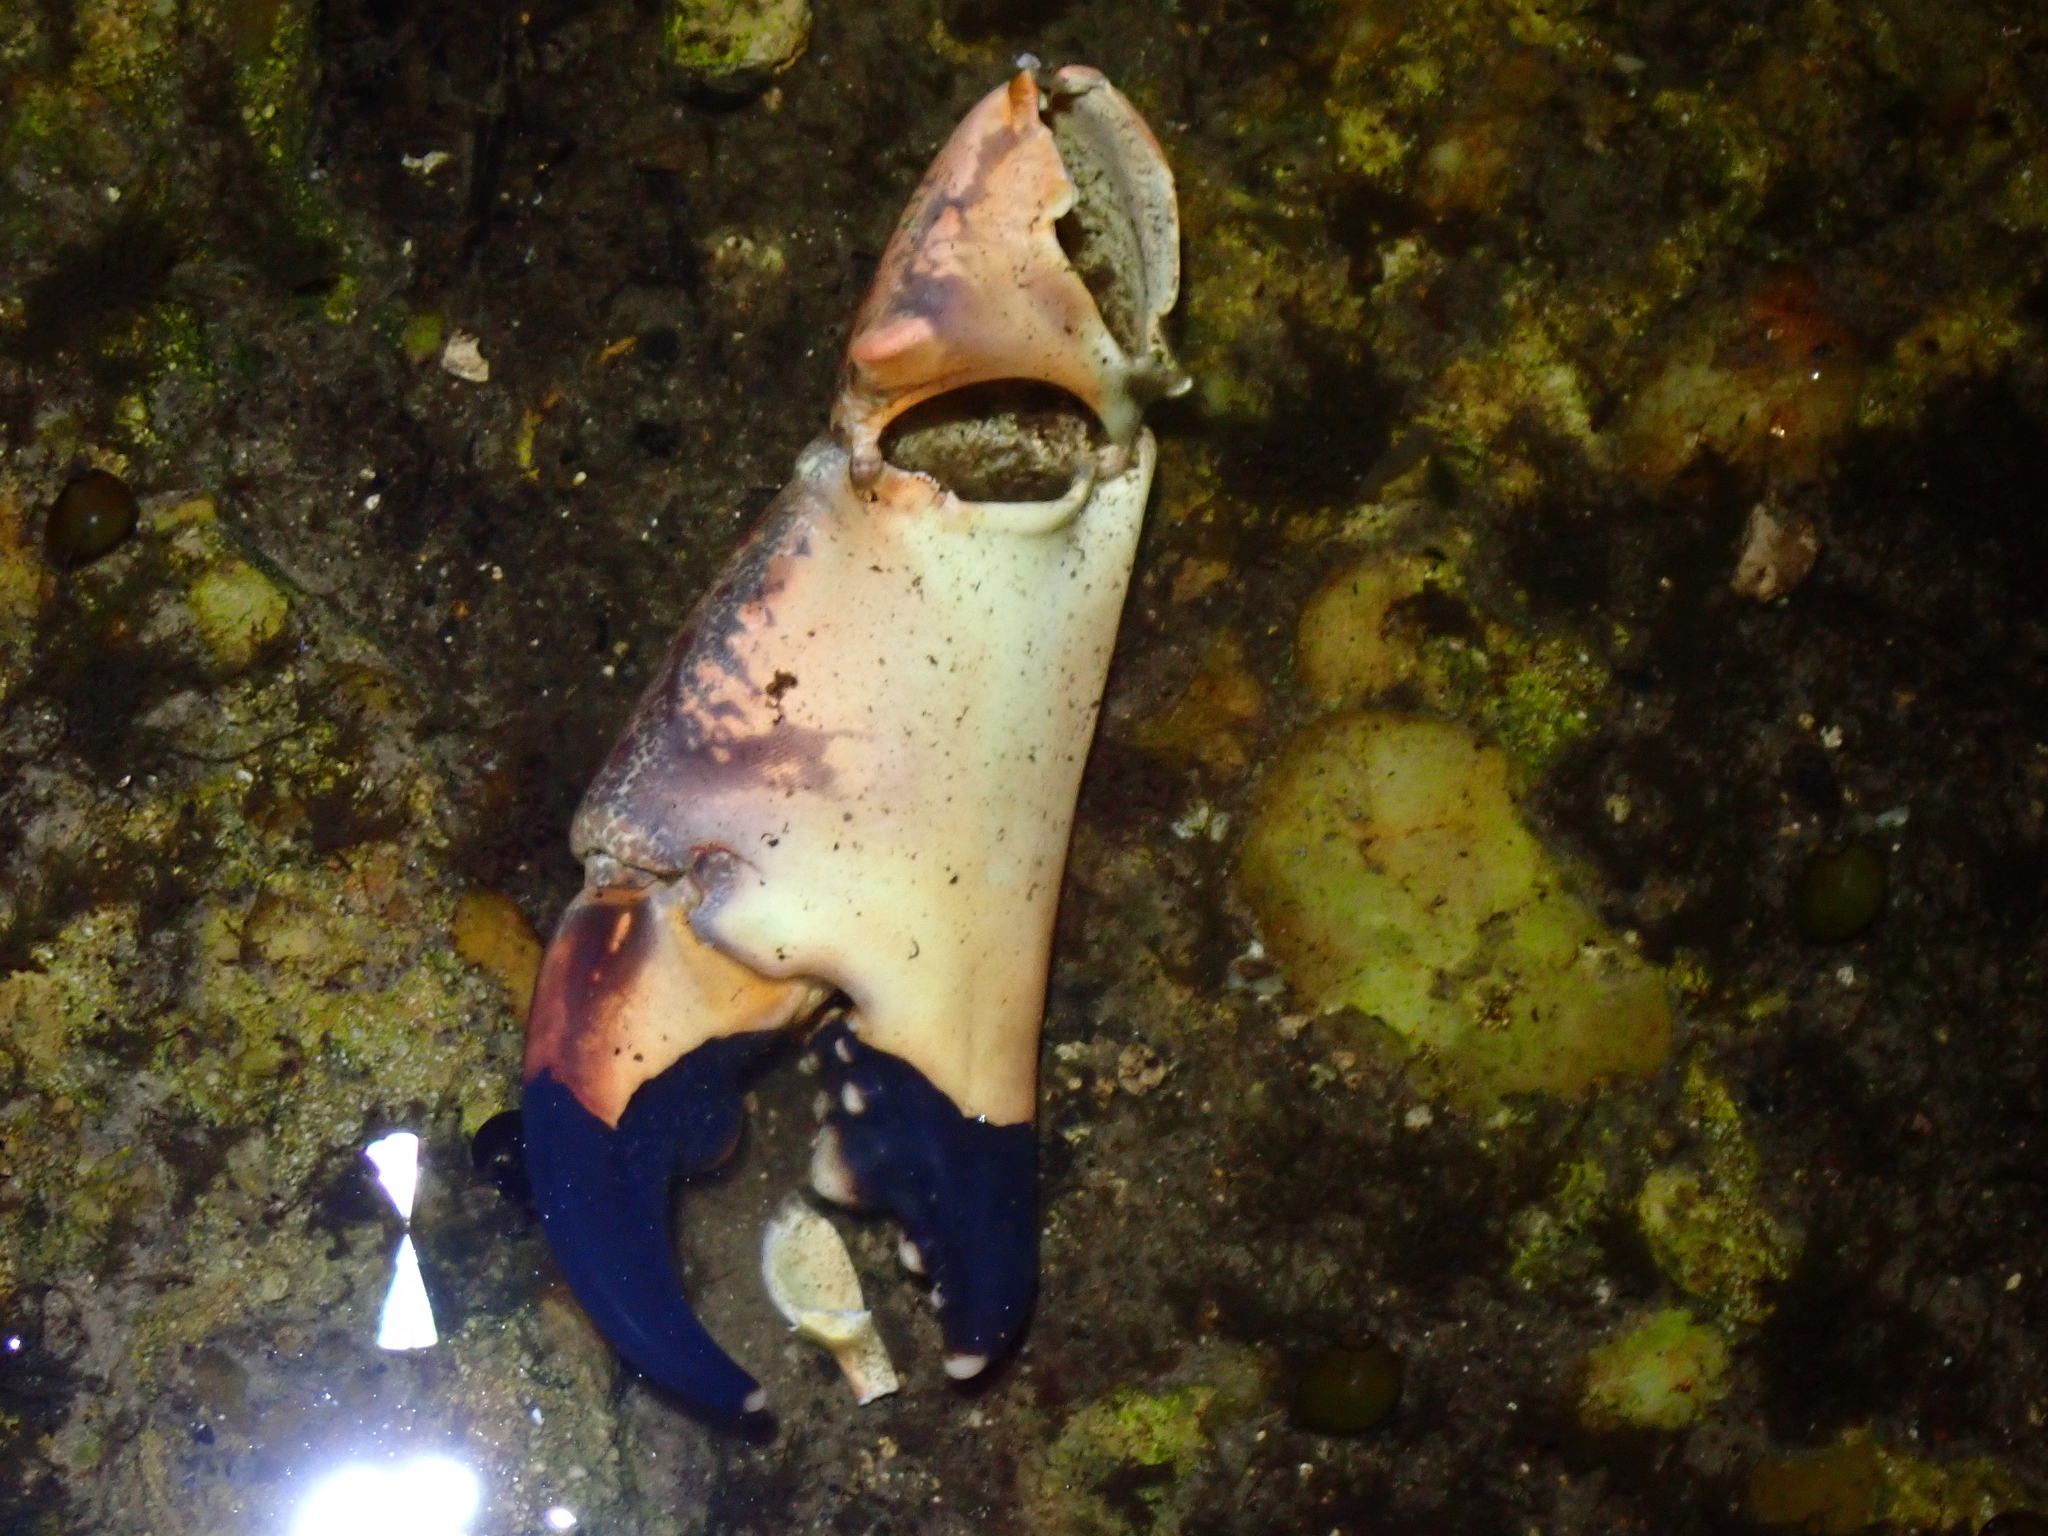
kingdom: Animalia
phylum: Arthropoda
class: Malacostraca
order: Decapoda
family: Menippidae
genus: Menippe
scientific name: Menippe mercenaria
